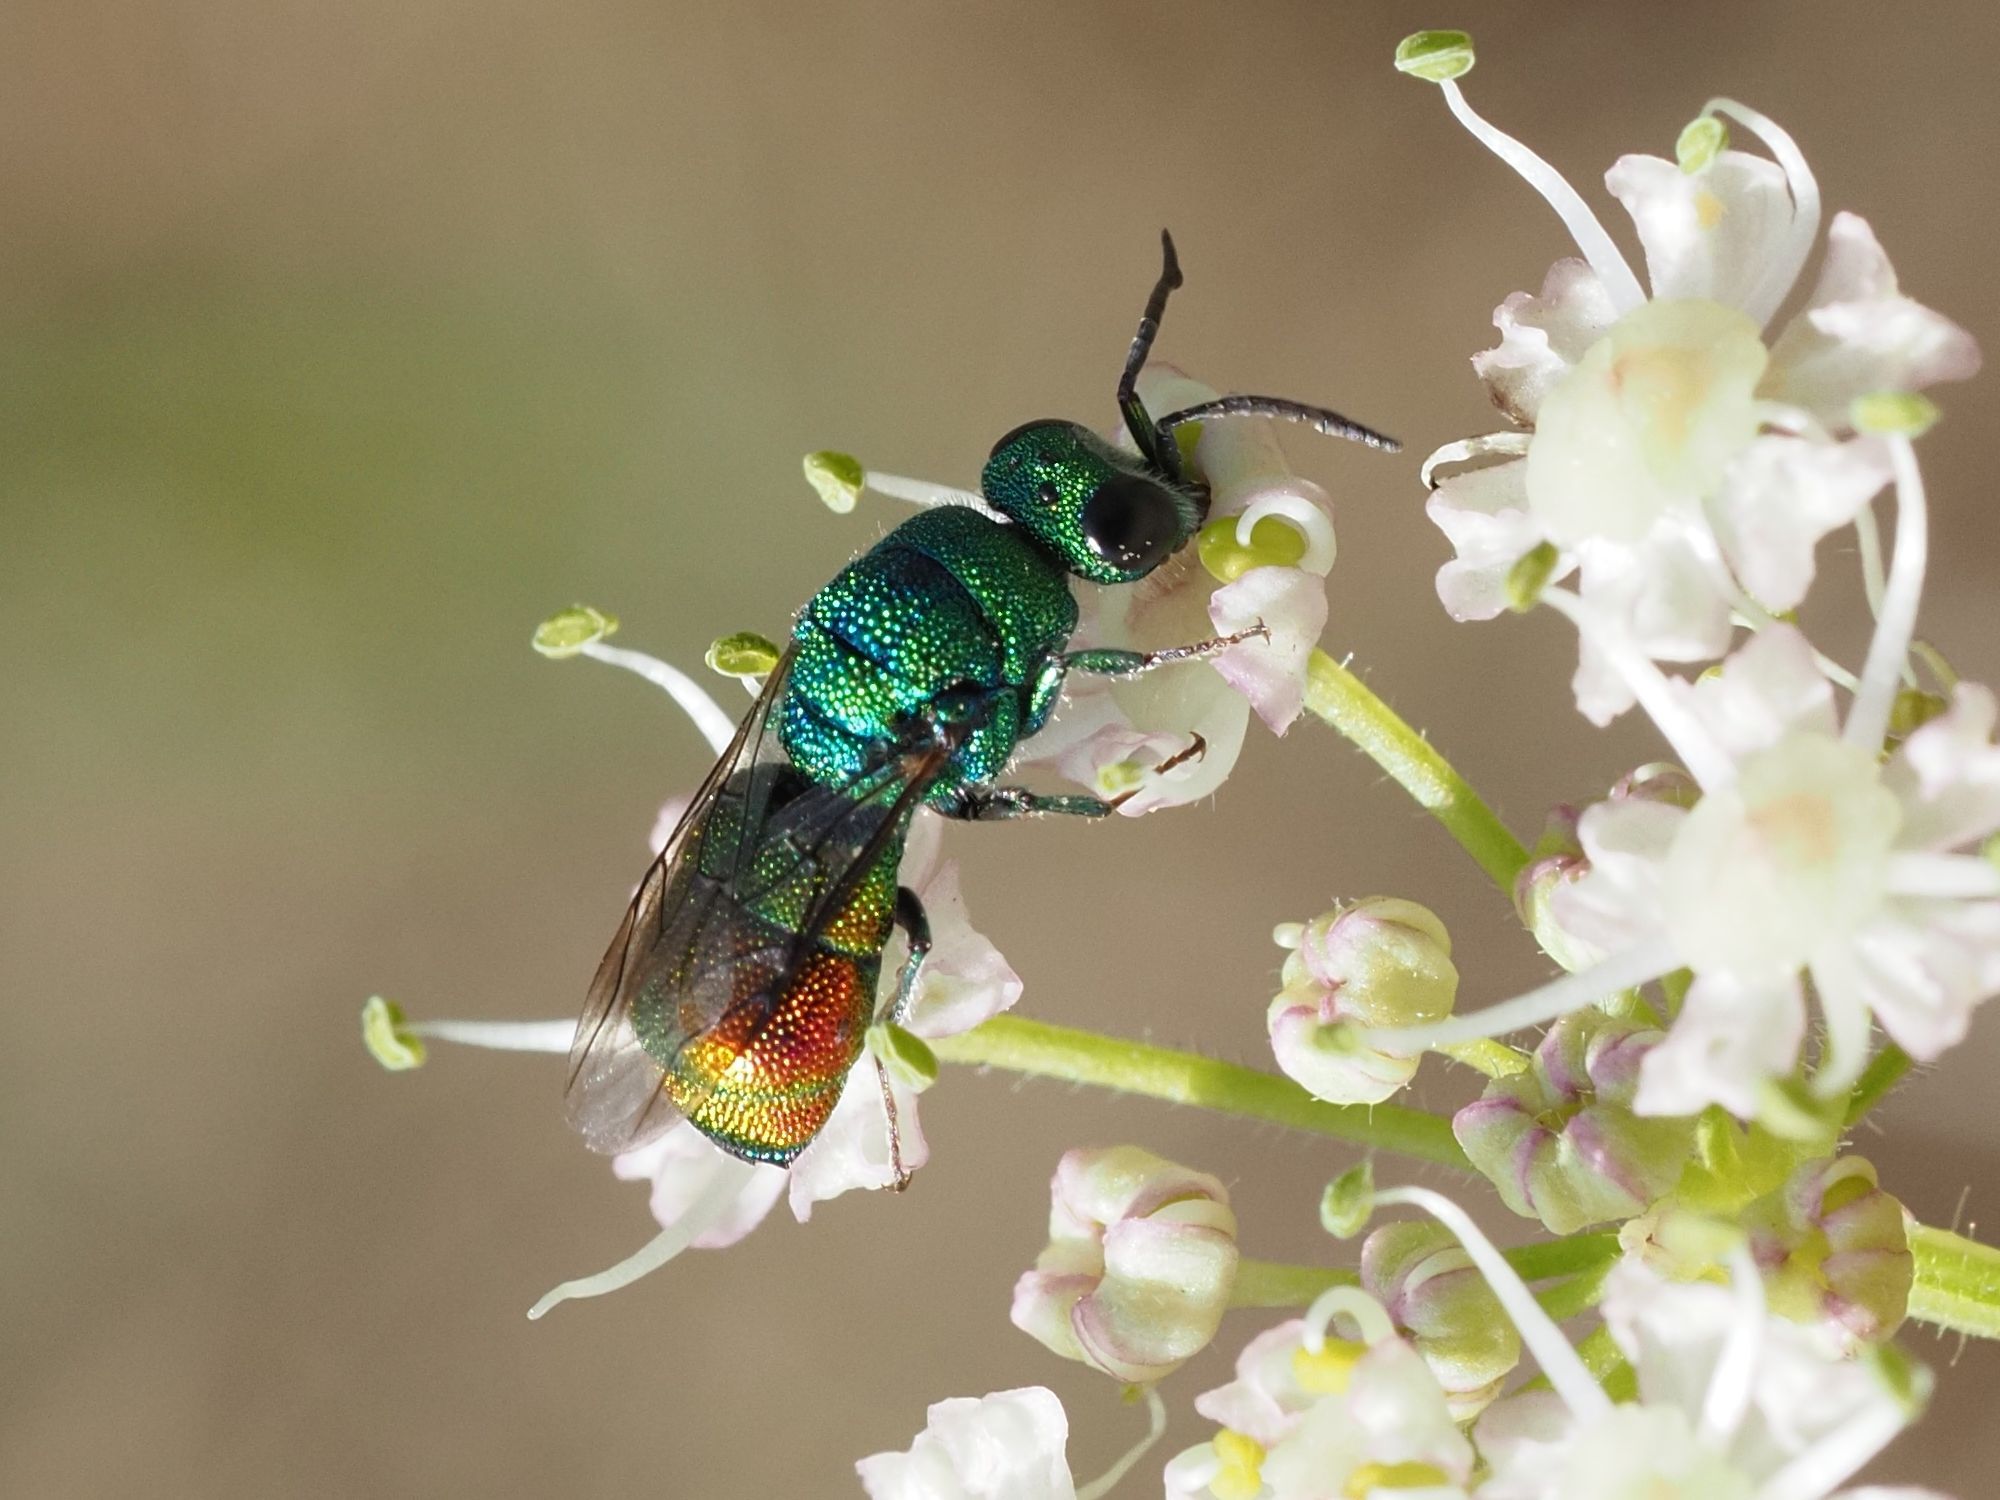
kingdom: Animalia
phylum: Arthropoda
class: Insecta
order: Hymenoptera
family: Chrysididae
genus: Chrysis
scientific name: Chrysis marginata
